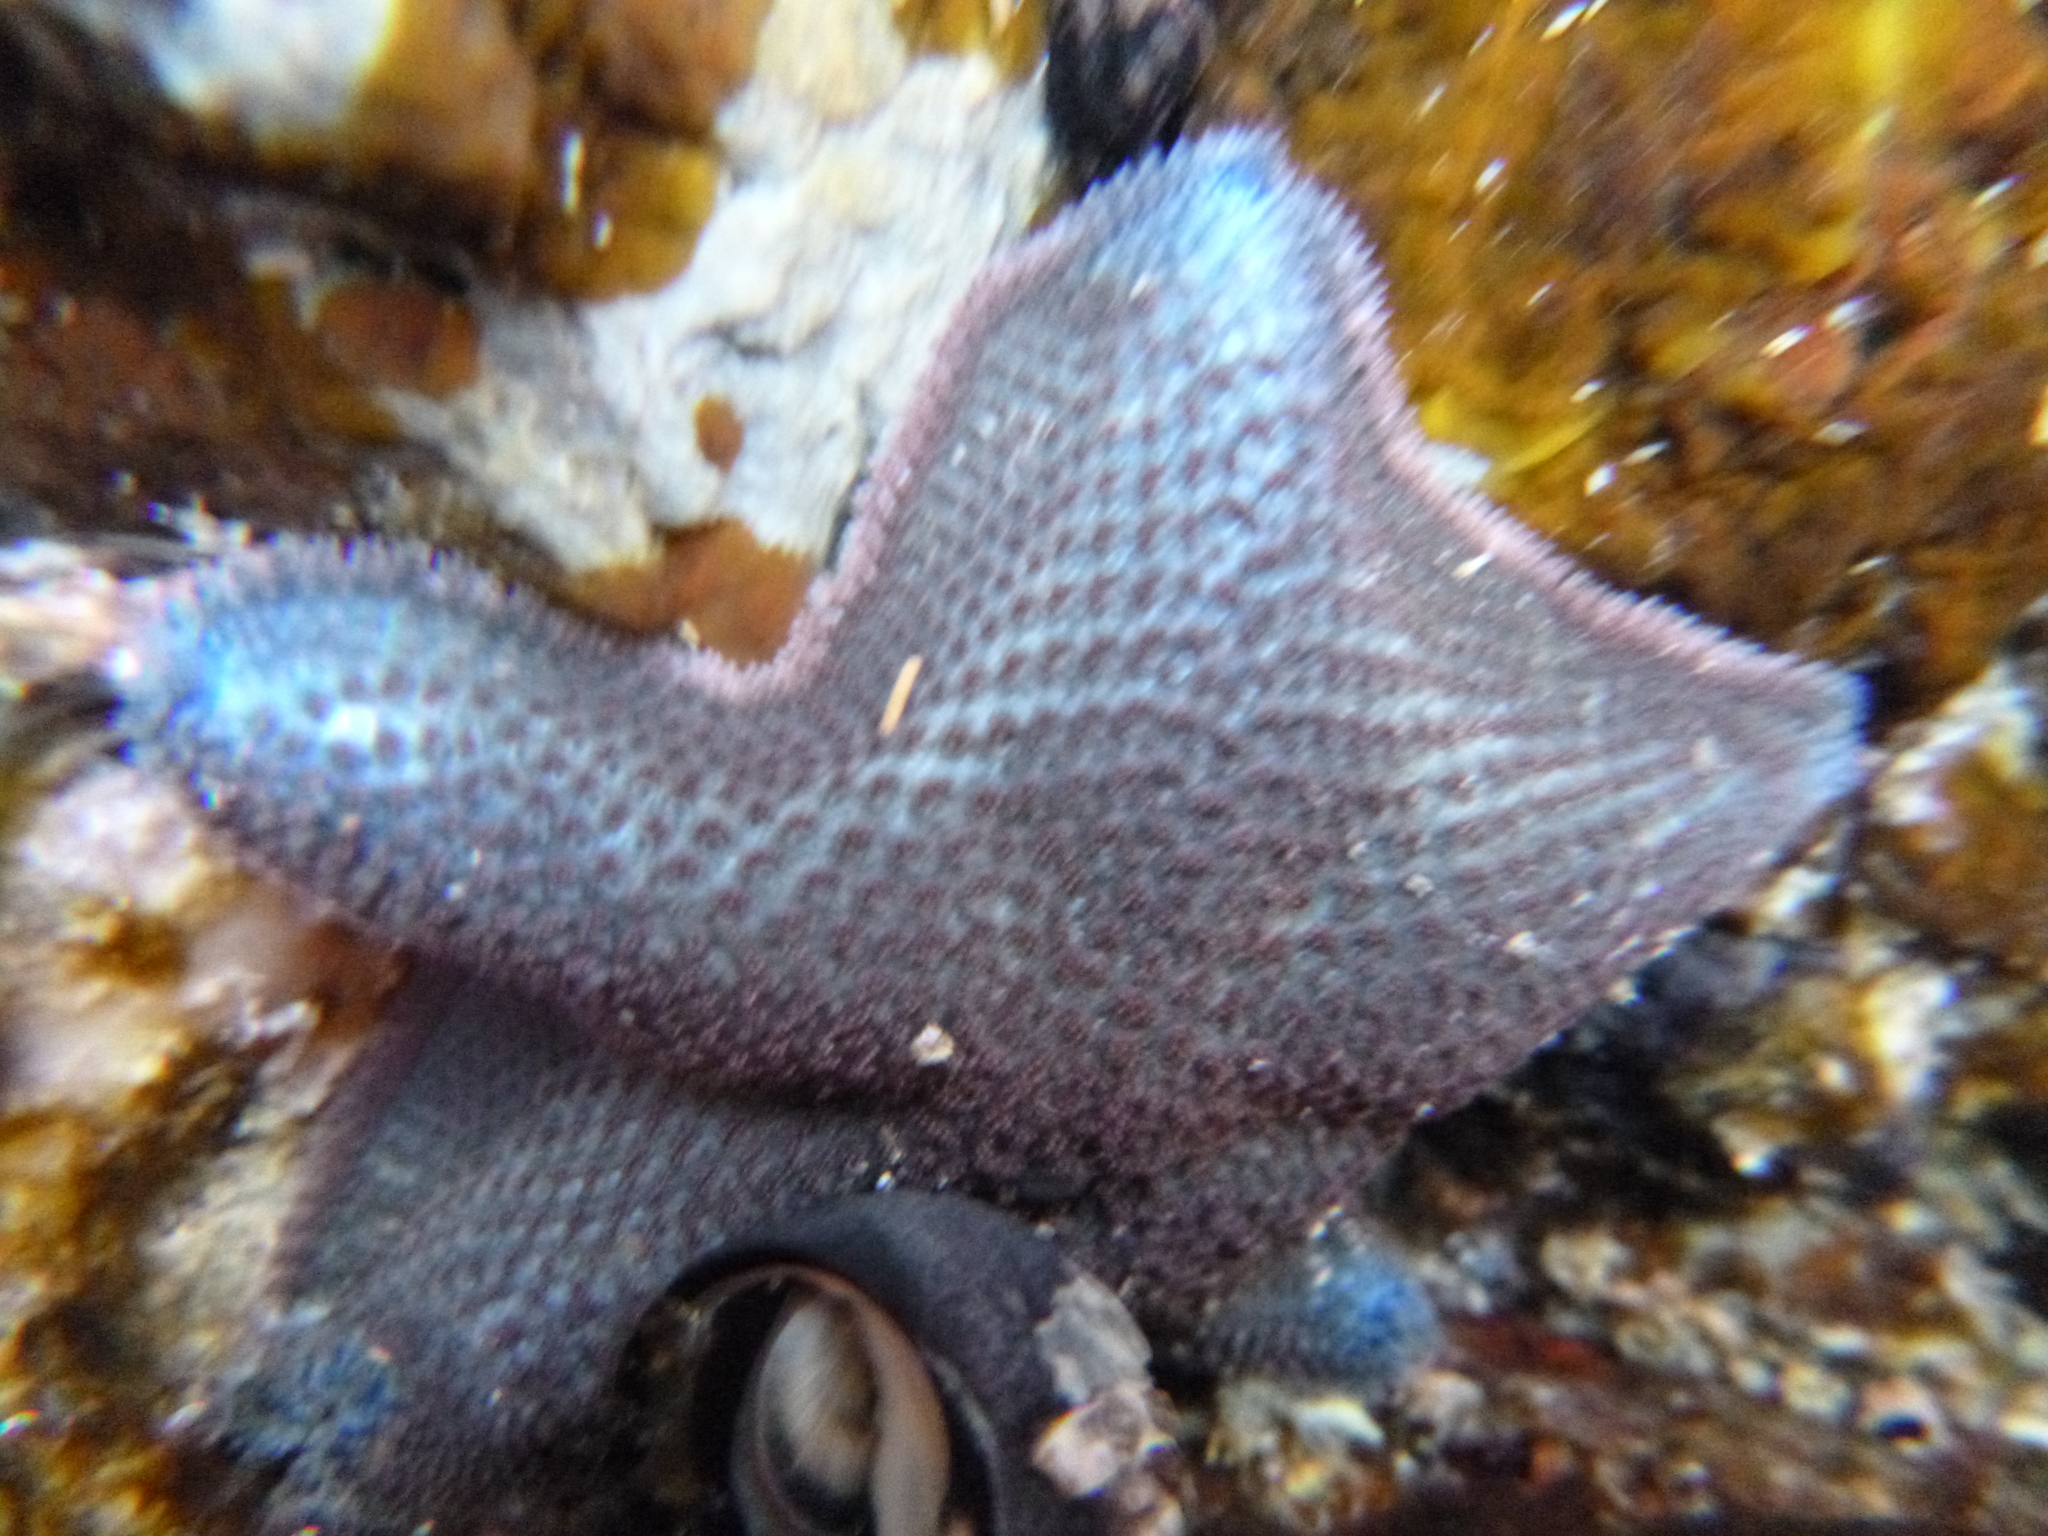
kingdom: Animalia
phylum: Echinodermata
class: Asteroidea
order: Valvatida
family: Asterinidae
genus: Patiriella
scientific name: Patiriella regularis
